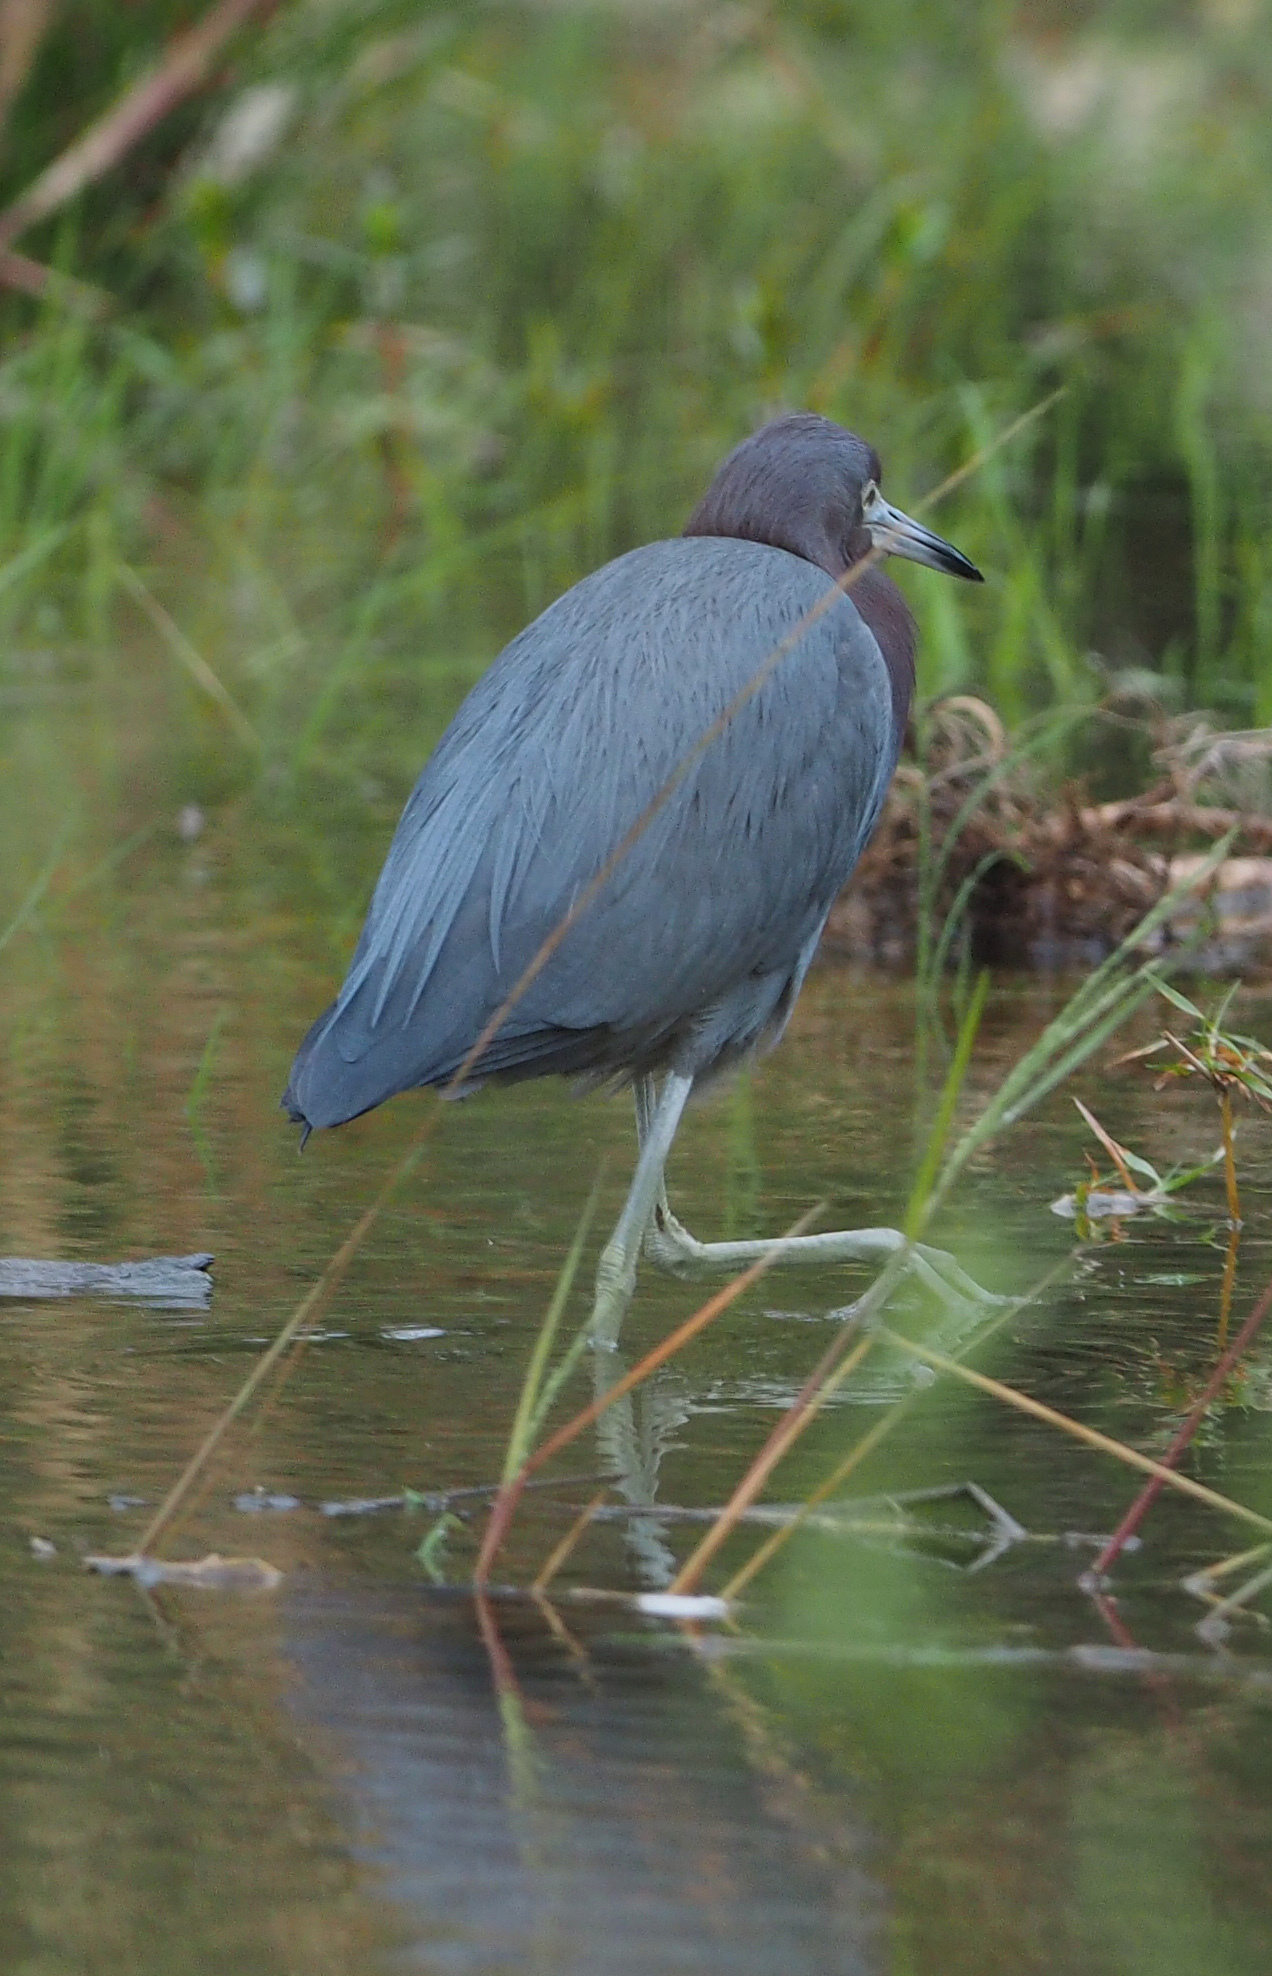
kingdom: Animalia
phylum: Chordata
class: Aves
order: Pelecaniformes
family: Ardeidae
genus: Egretta
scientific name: Egretta caerulea
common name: Little blue heron
